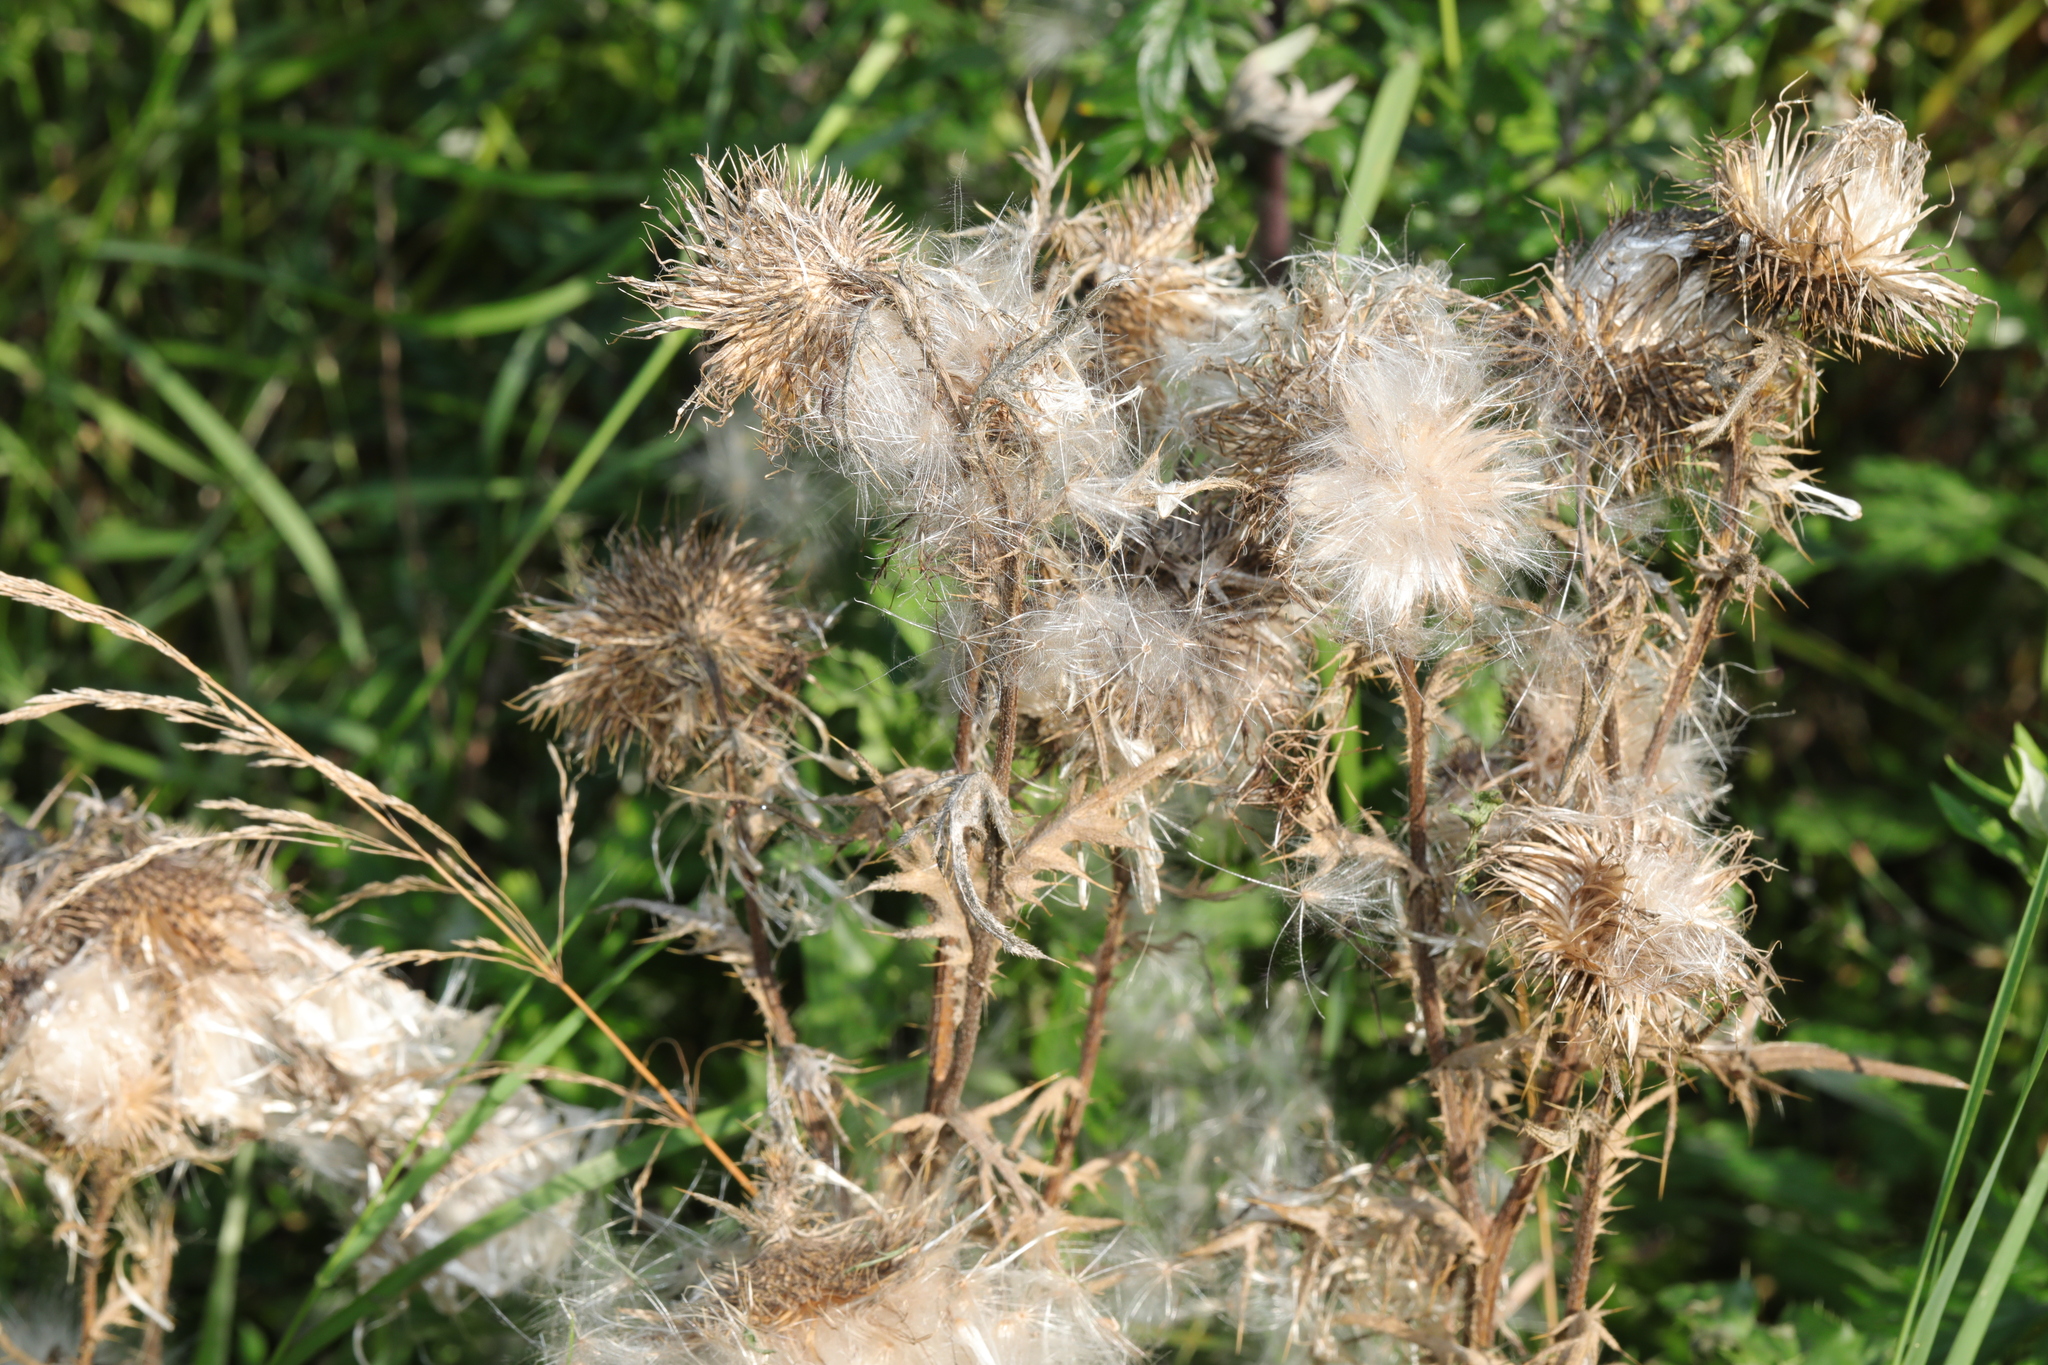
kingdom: Plantae
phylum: Tracheophyta
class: Magnoliopsida
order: Asterales
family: Asteraceae
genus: Cirsium
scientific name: Cirsium vulgare
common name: Bull thistle
